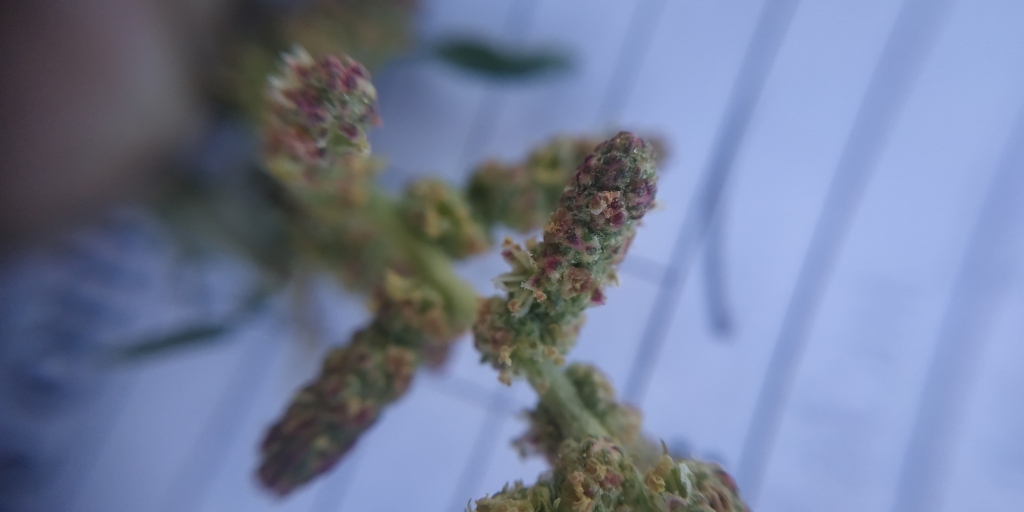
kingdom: Plantae
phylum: Tracheophyta
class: Magnoliopsida
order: Caryophyllales
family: Amaranthaceae
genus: Atriplex
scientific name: Atriplex tatarica
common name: Tatarian orache
